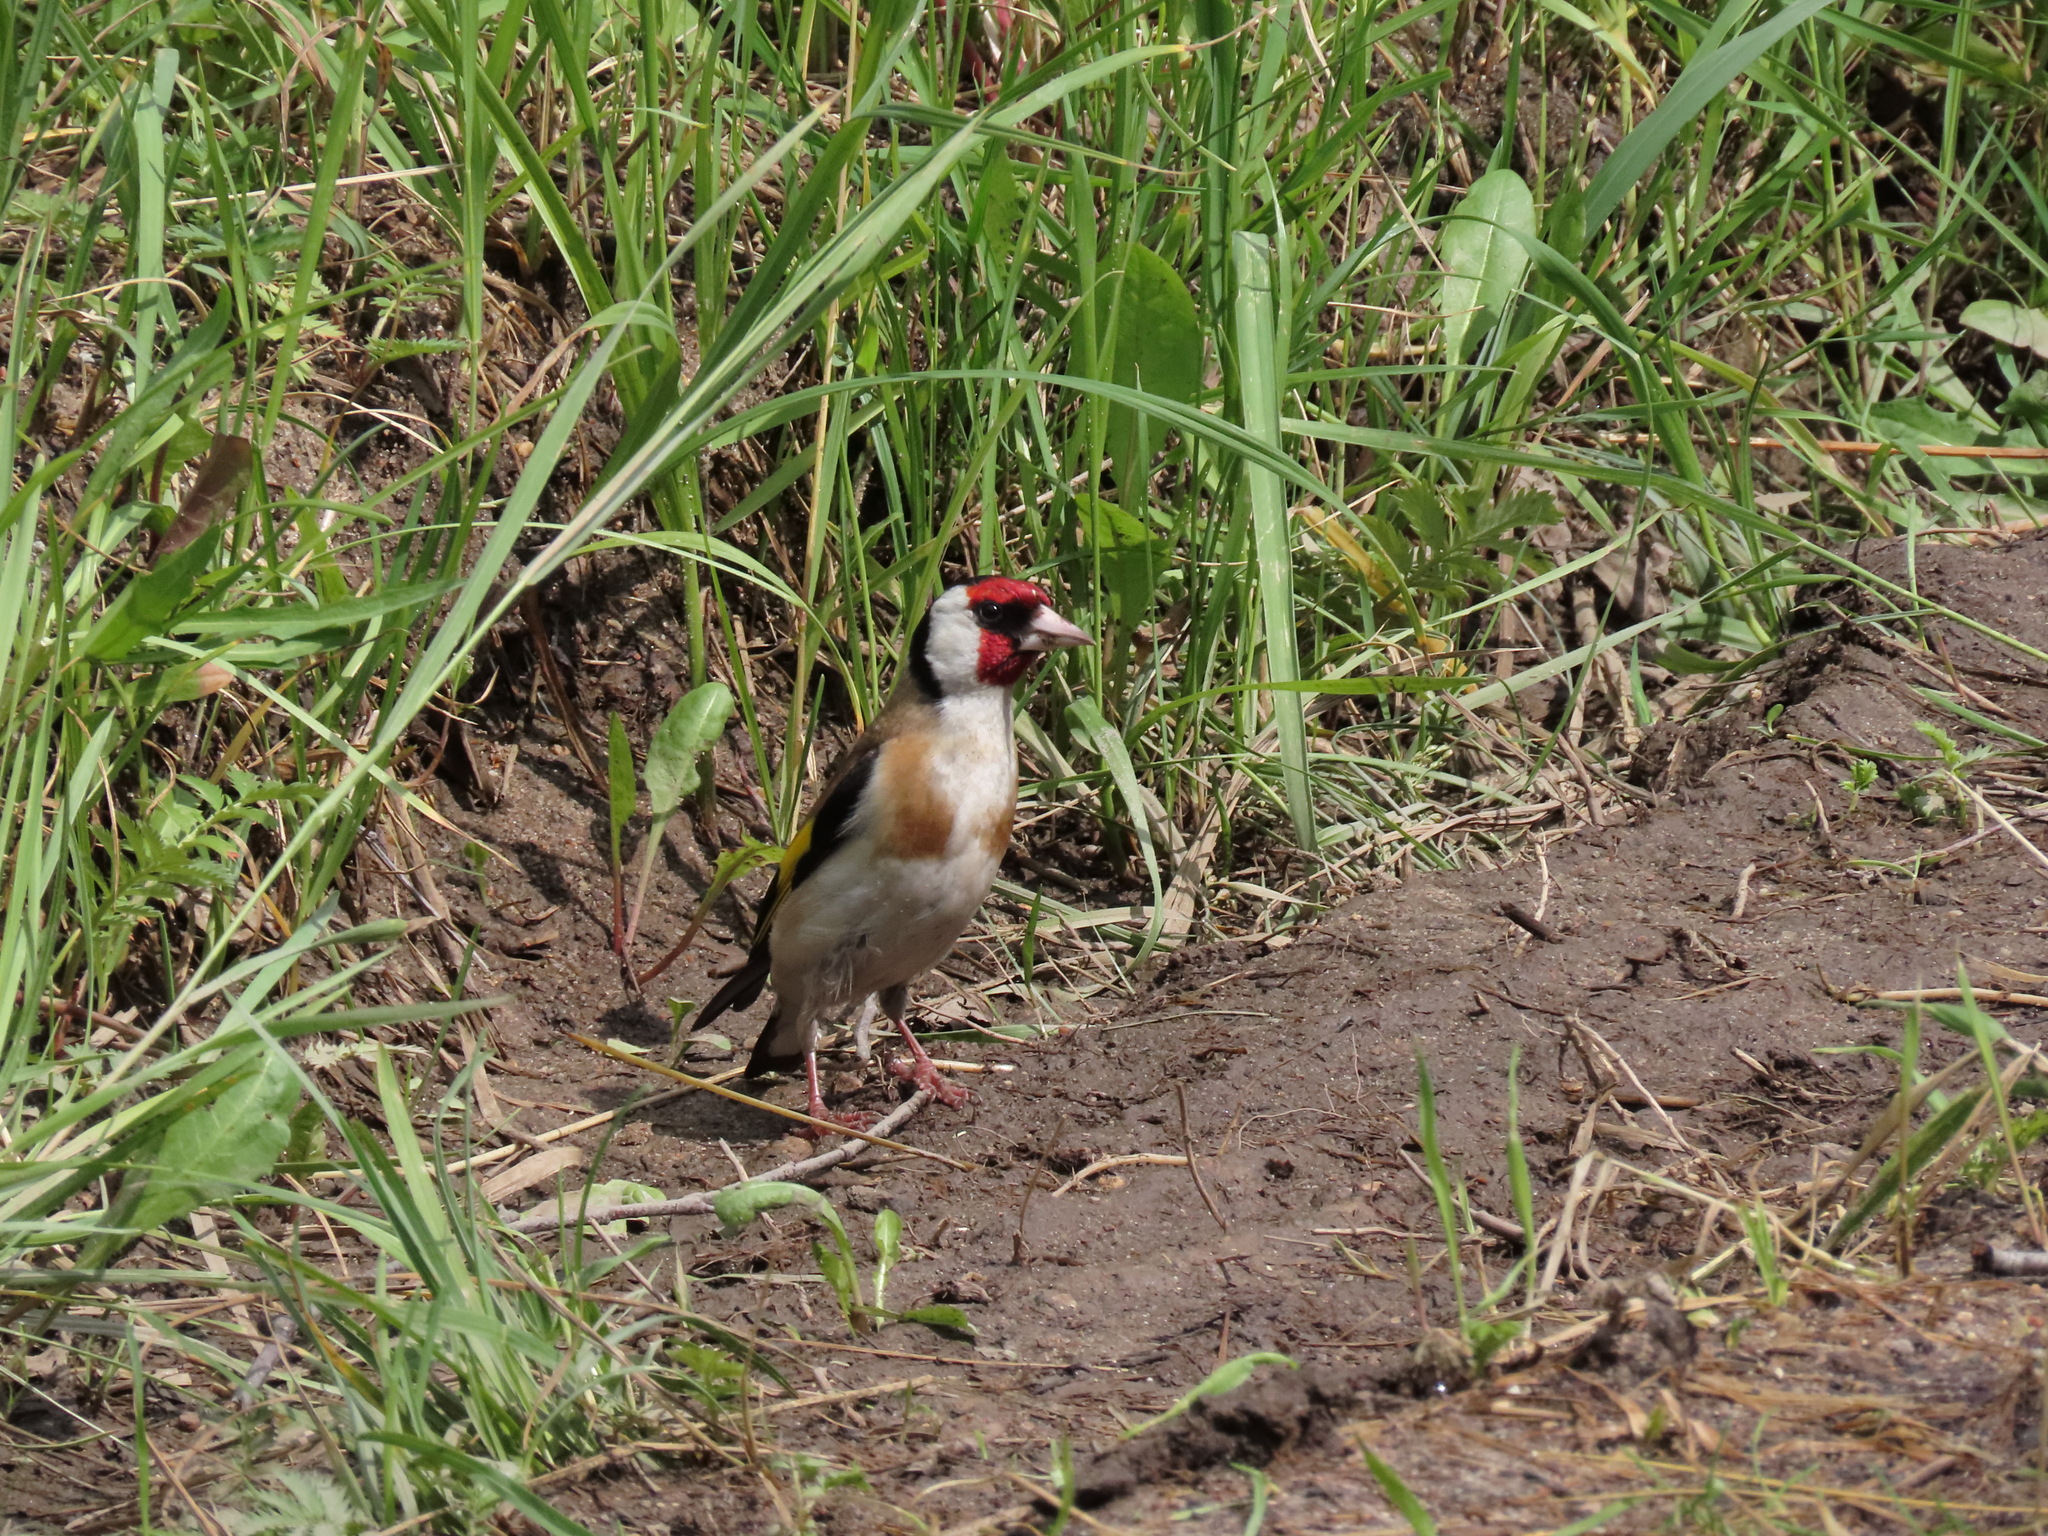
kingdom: Animalia
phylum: Chordata
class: Aves
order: Passeriformes
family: Fringillidae
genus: Carduelis
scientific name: Carduelis carduelis
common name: European goldfinch
